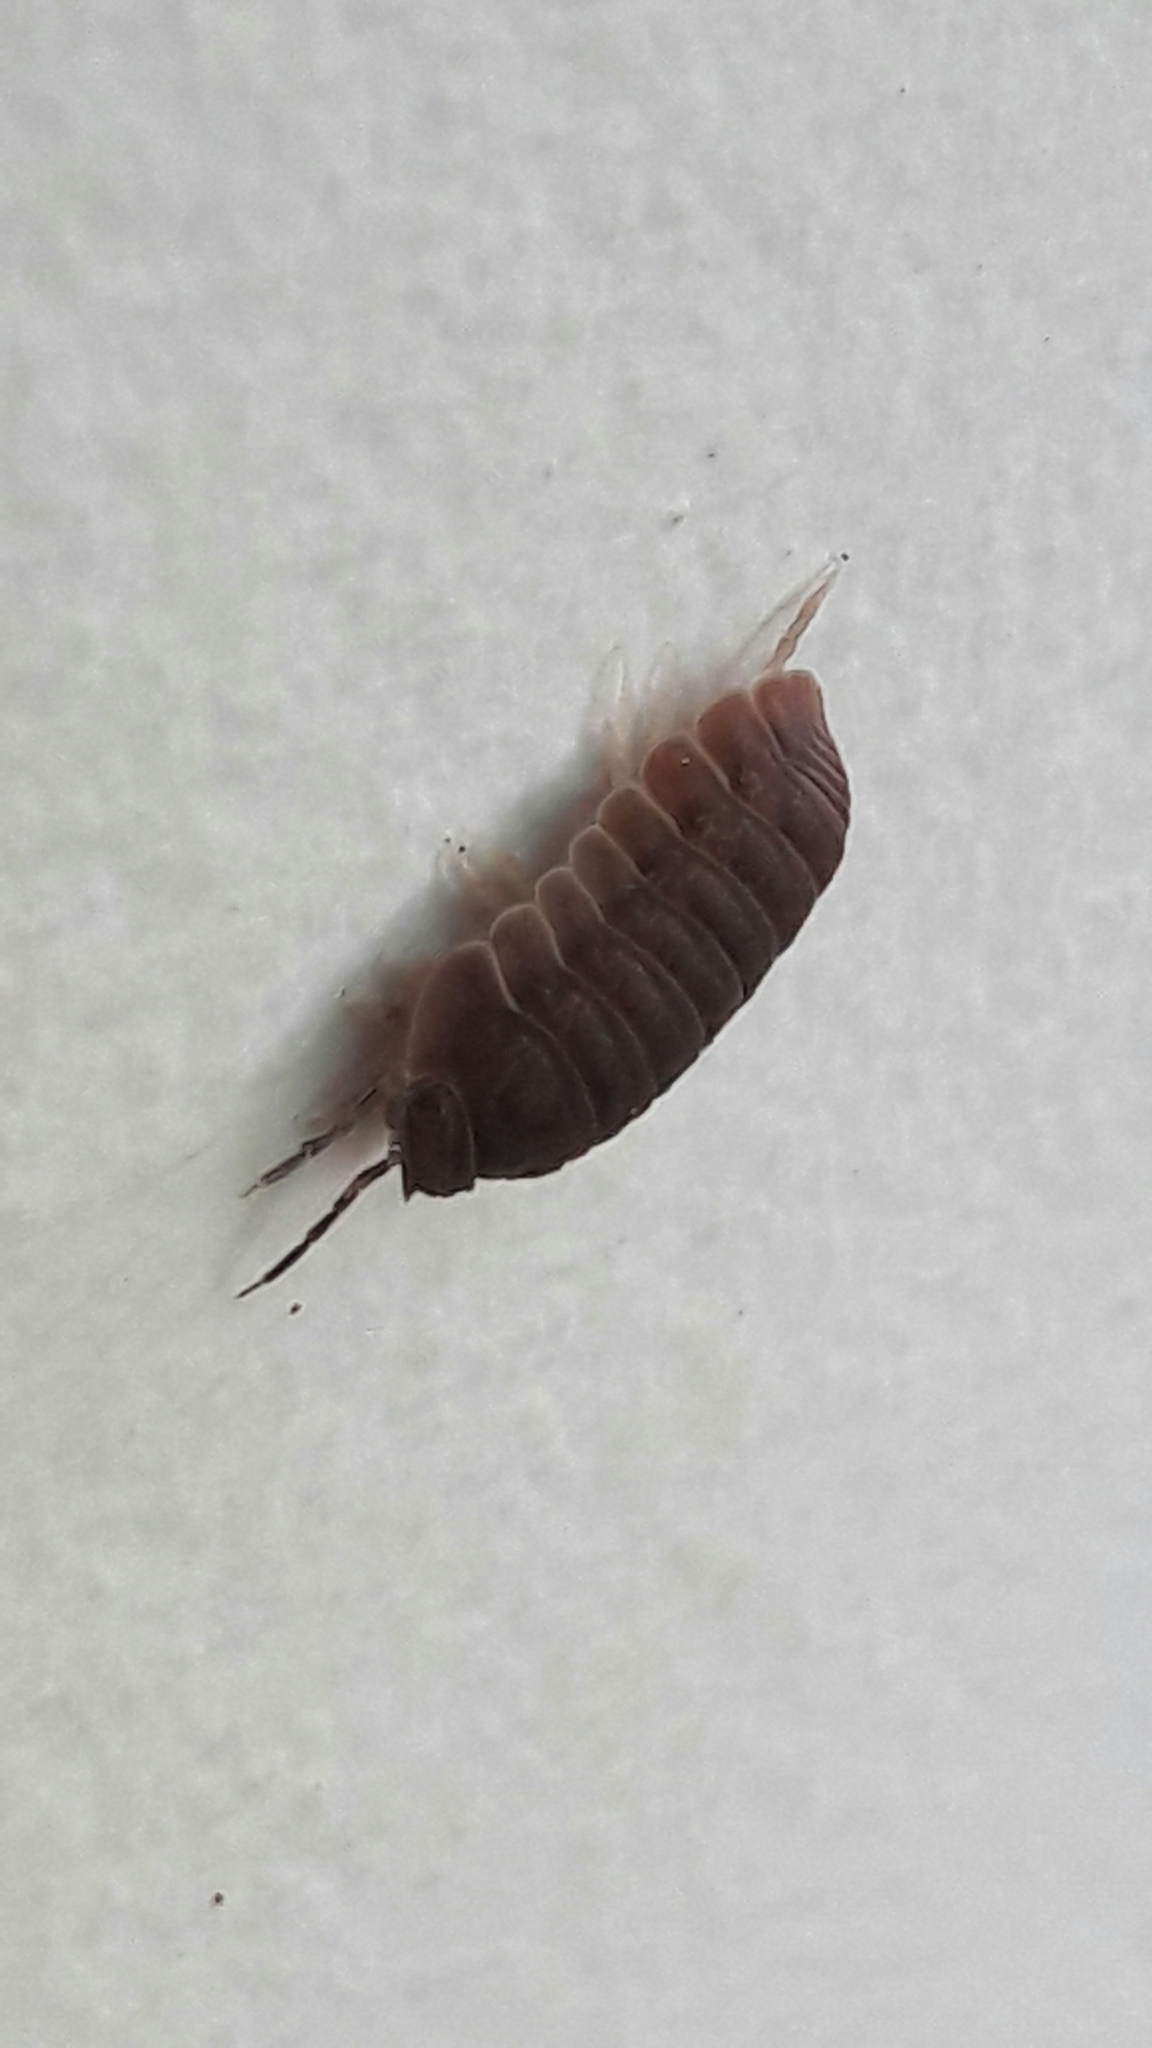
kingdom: Animalia
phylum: Arthropoda
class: Malacostraca
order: Isopoda
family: Armadillidae
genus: Cubaris
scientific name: Cubaris murina
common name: Pillbug
